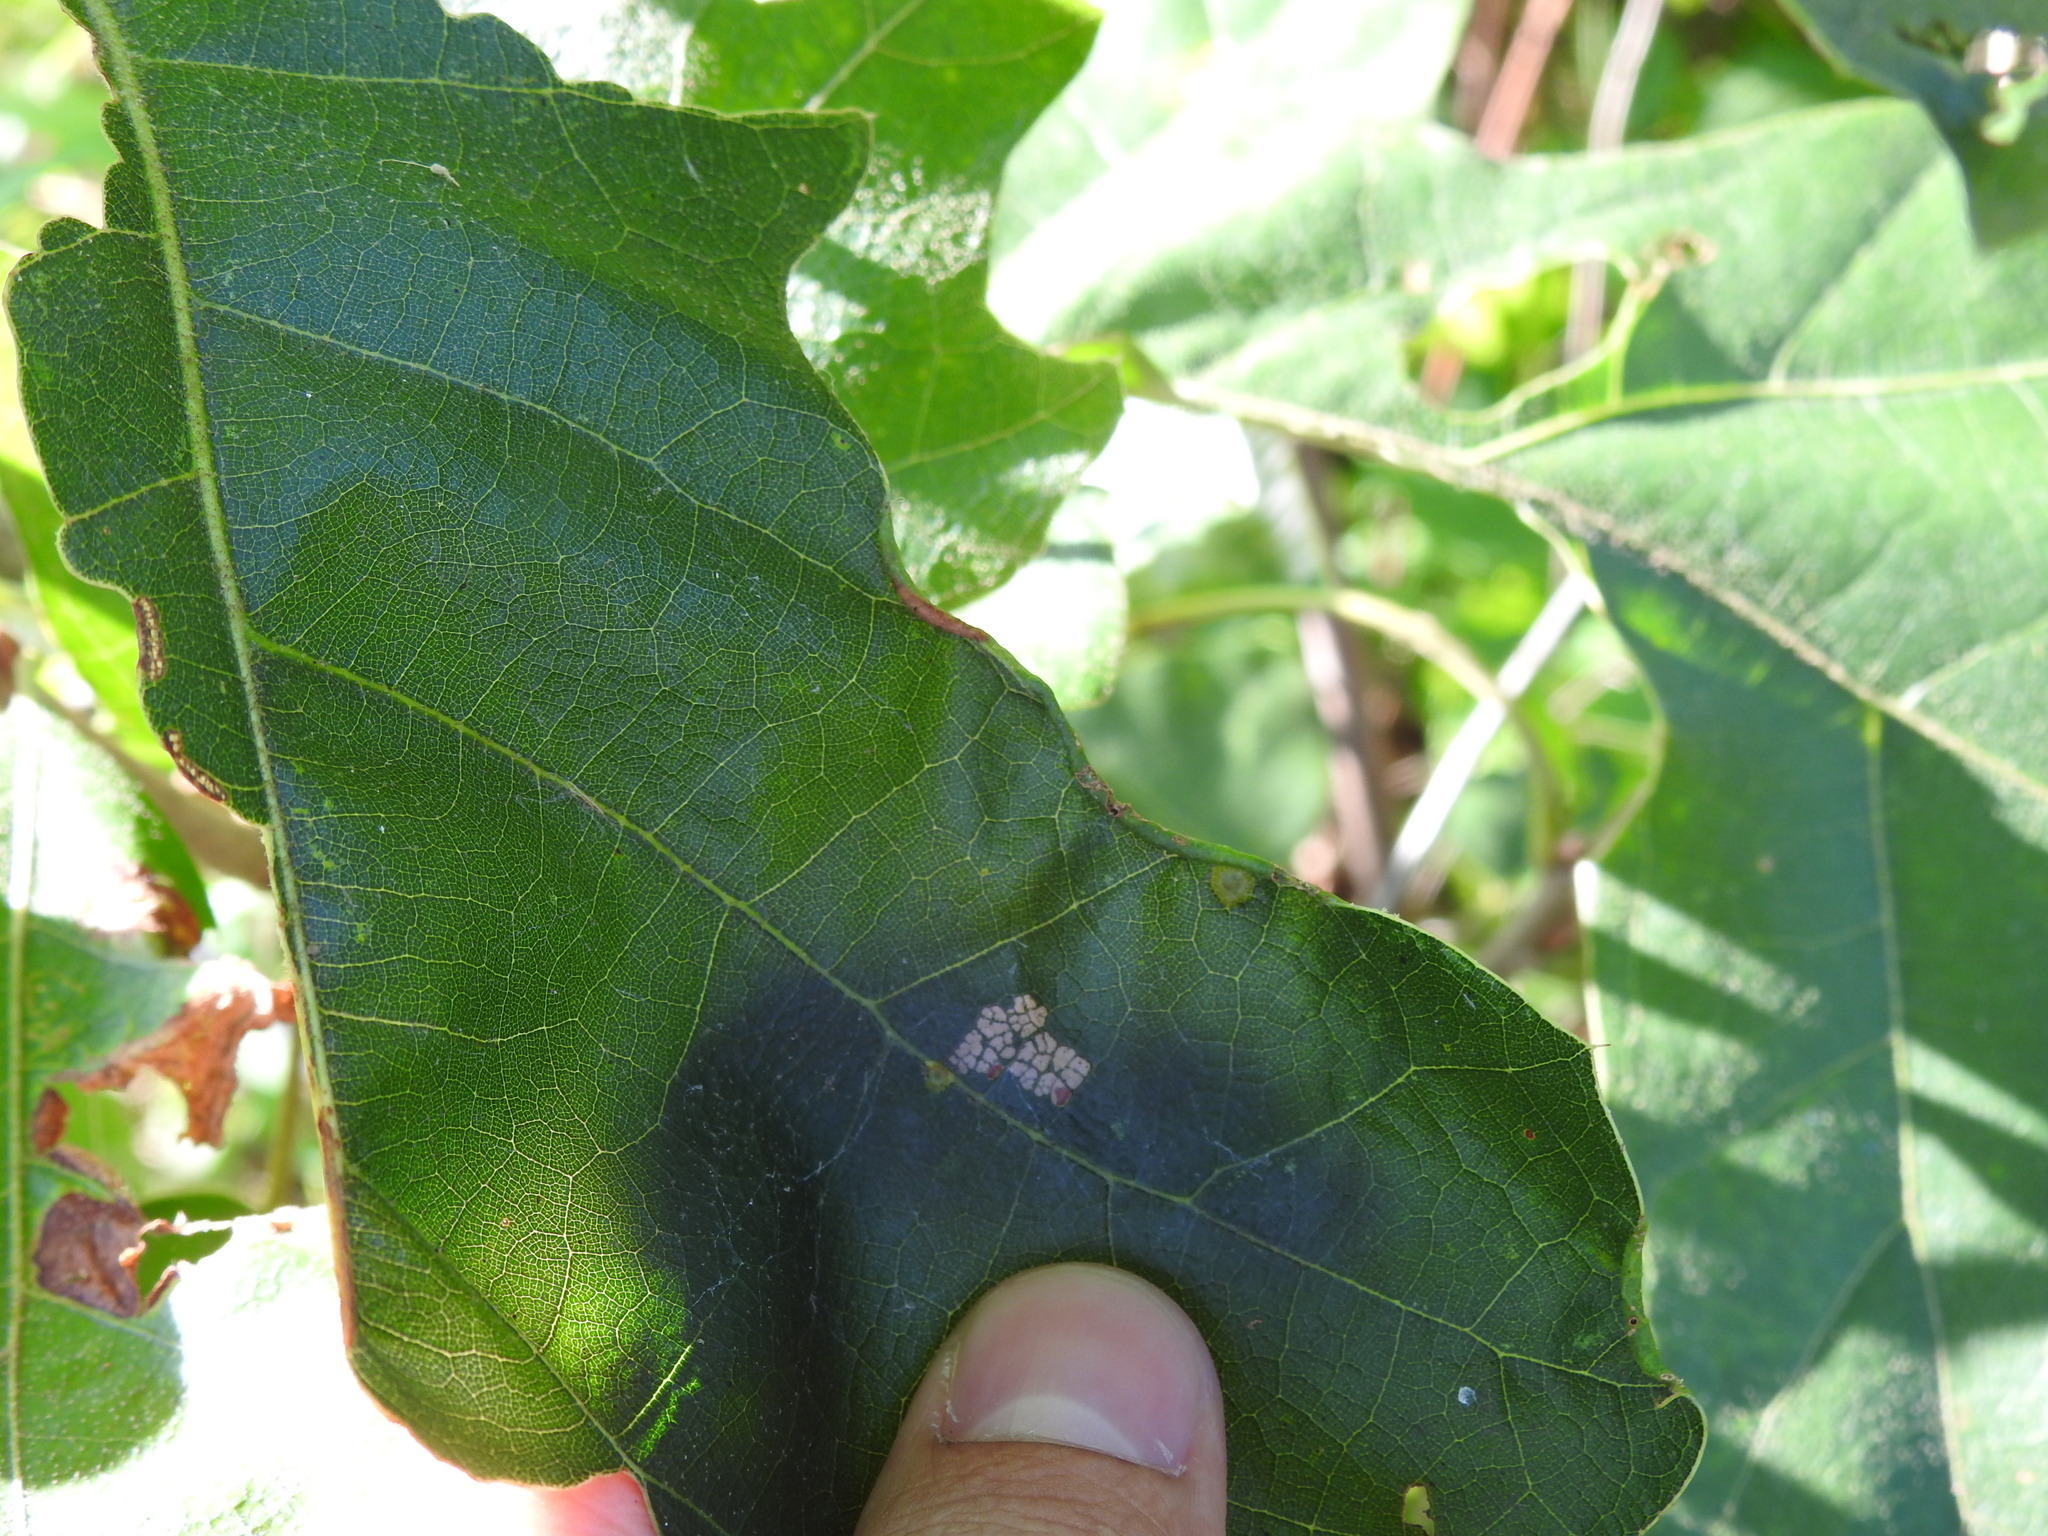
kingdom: Animalia
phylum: Arthropoda
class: Insecta
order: Diptera
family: Cecidomyiidae
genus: Macrodiplosis
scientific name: Macrodiplosis erubescens
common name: Marginal leaf fold gall midge
